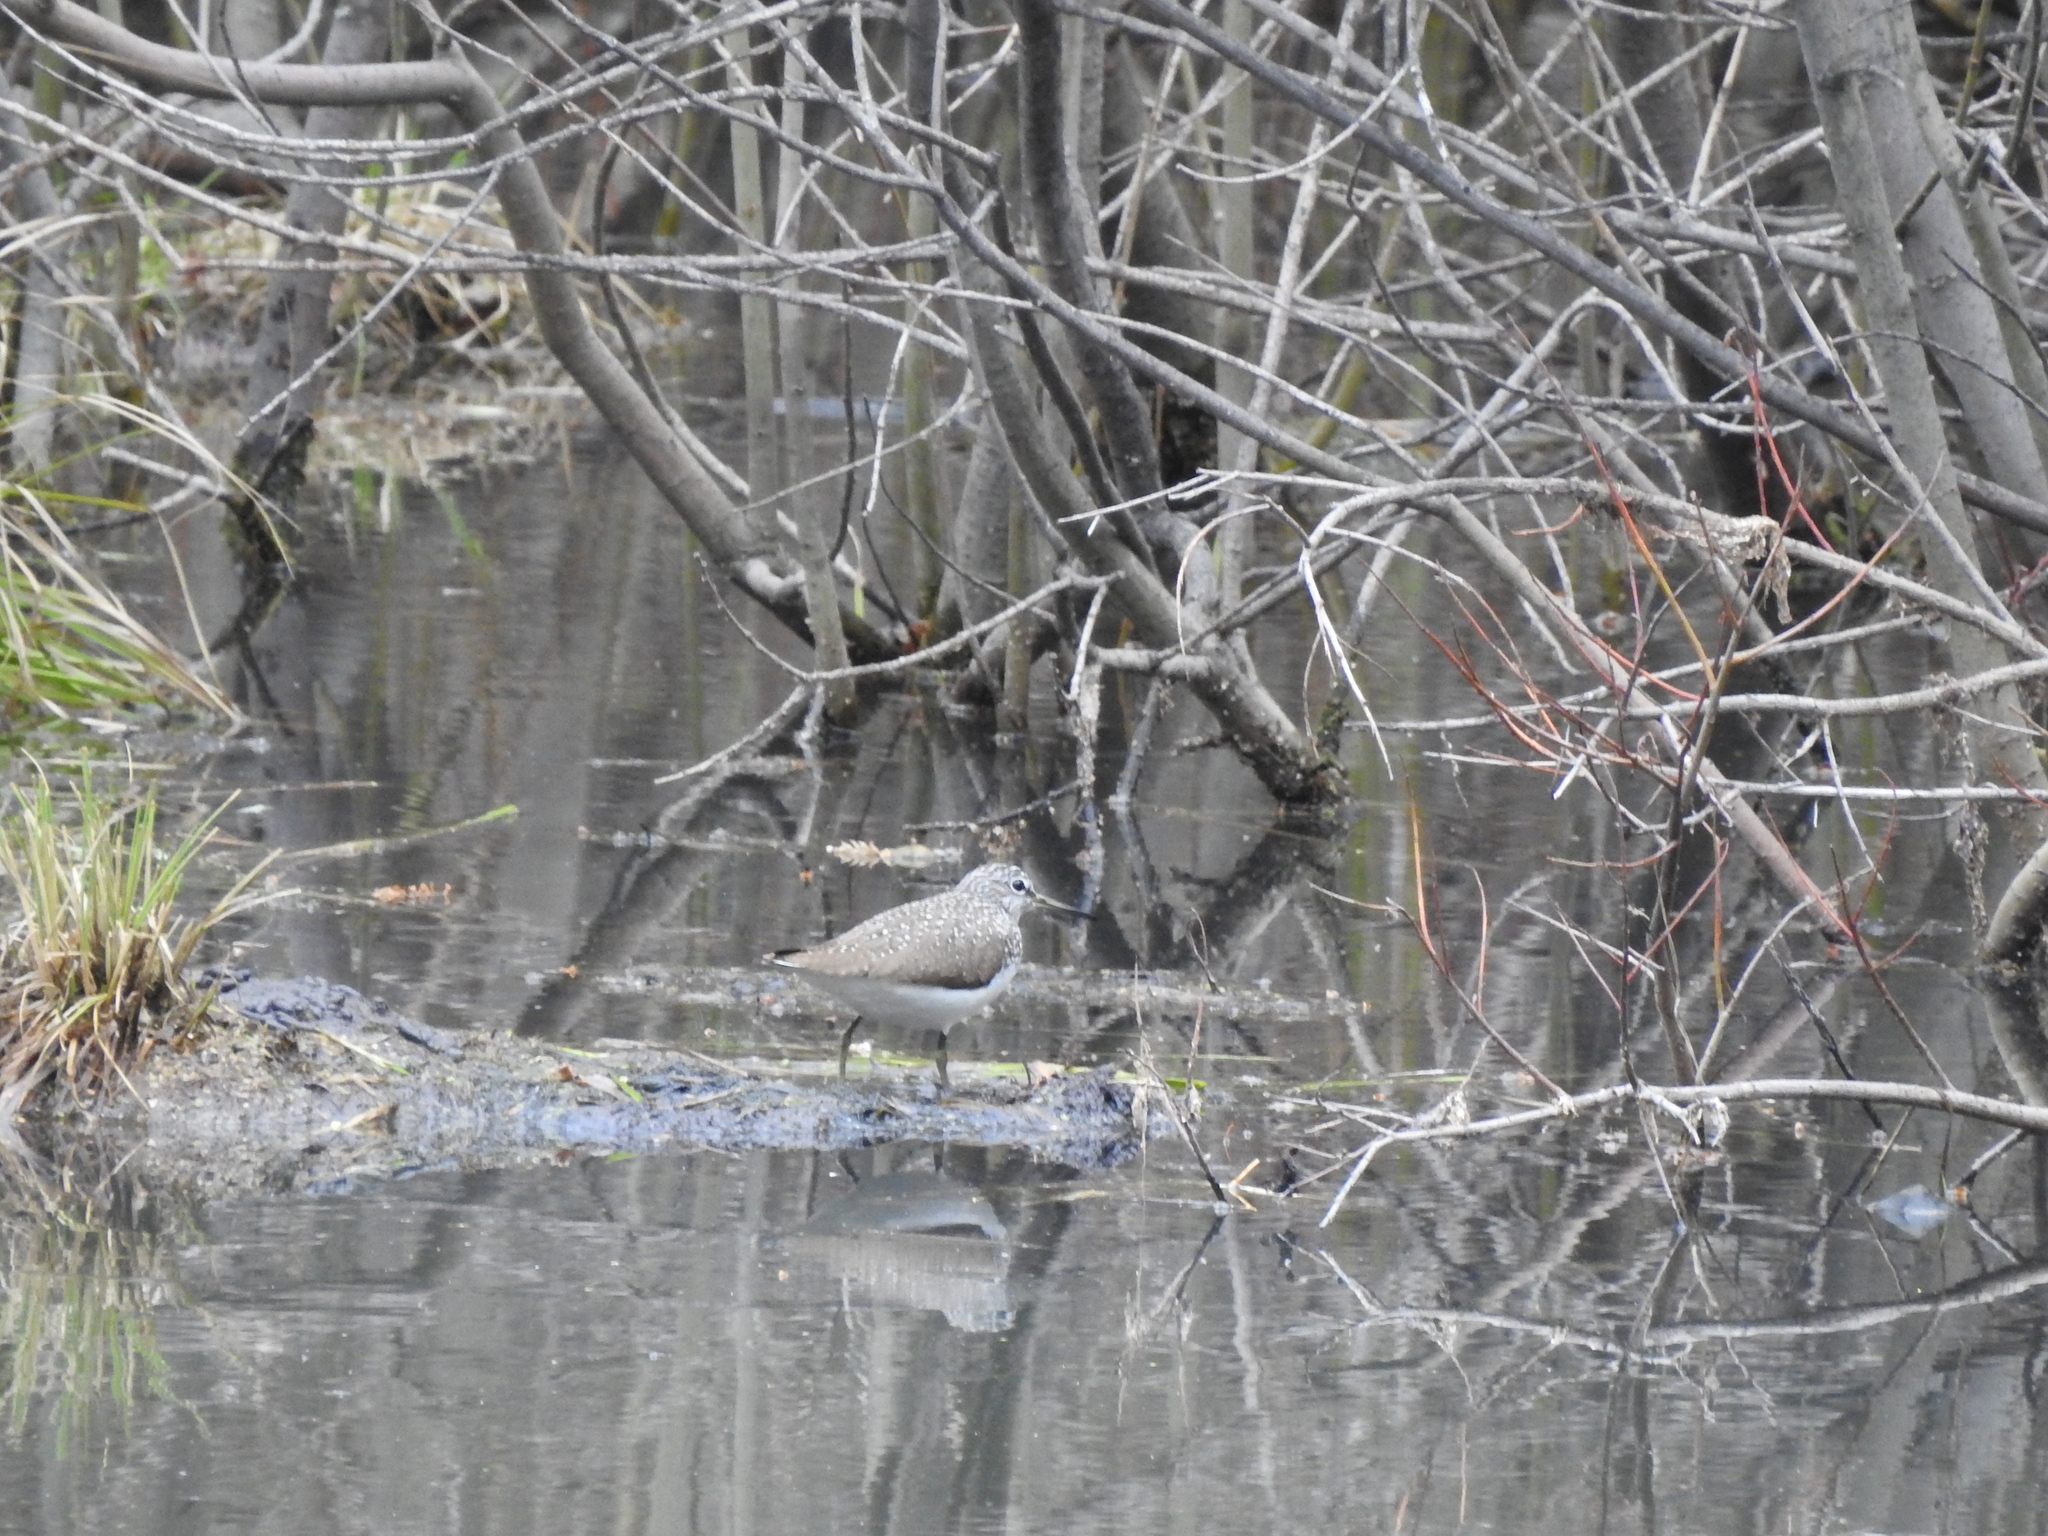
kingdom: Animalia
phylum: Chordata
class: Aves
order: Charadriiformes
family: Scolopacidae
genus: Tringa
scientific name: Tringa ochropus
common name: Green sandpiper
